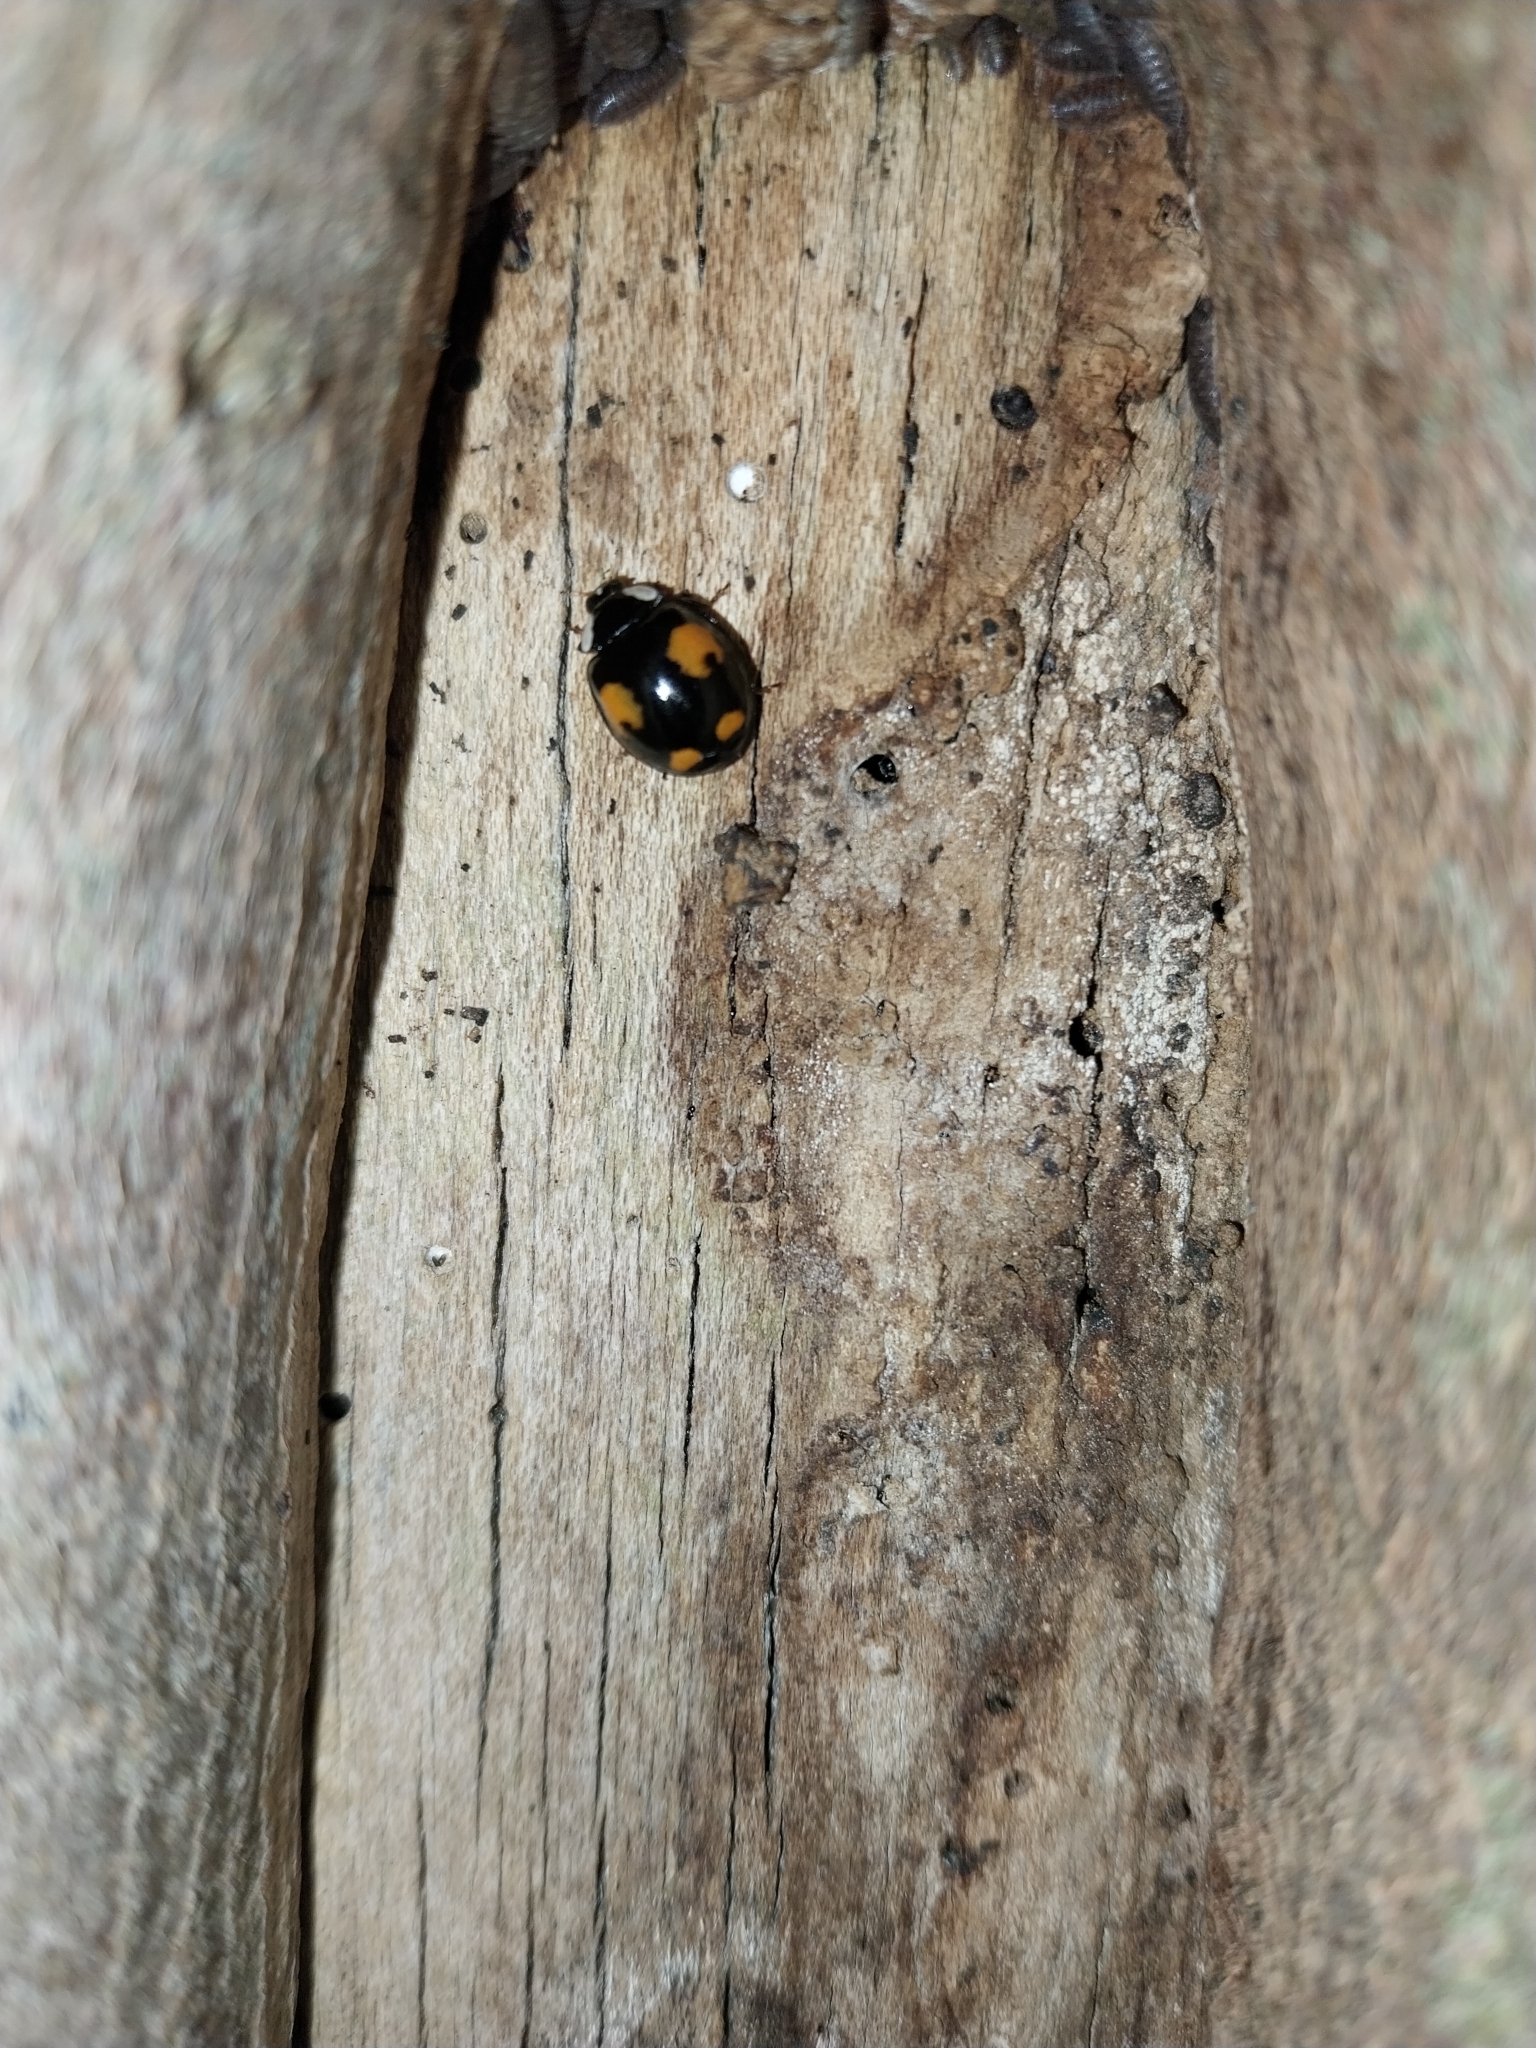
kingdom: Animalia
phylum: Arthropoda
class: Insecta
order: Coleoptera
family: Coccinellidae
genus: Harmonia
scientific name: Harmonia axyridis
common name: Harlequin ladybird
